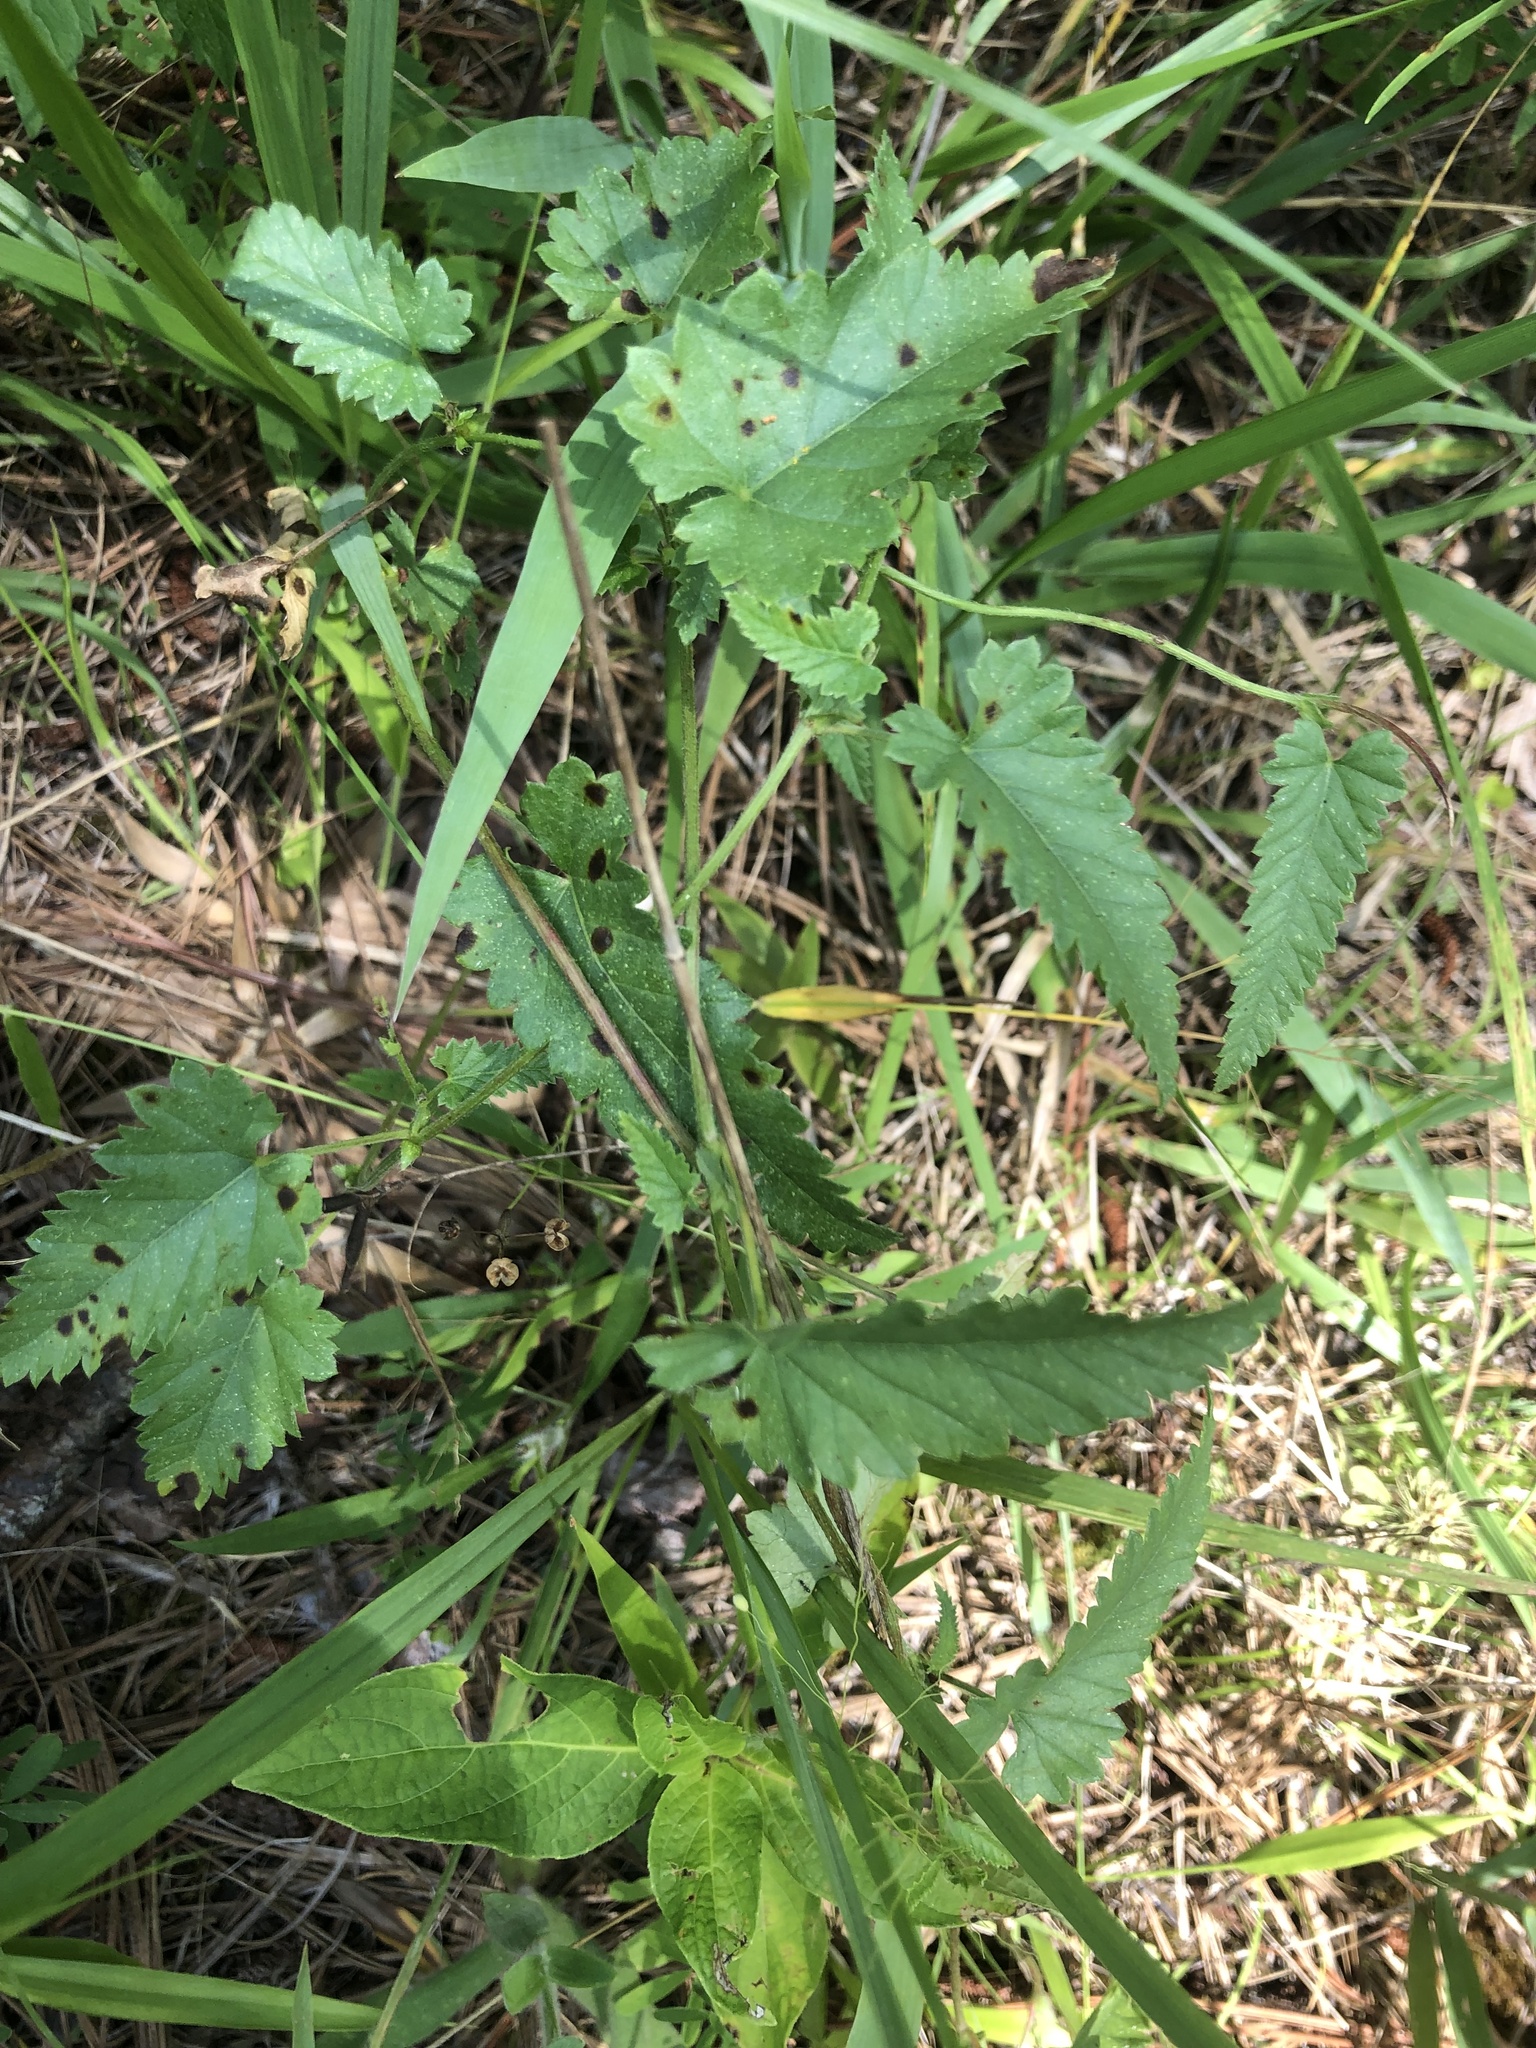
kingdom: Plantae
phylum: Tracheophyta
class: Magnoliopsida
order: Malpighiales
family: Euphorbiaceae
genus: Tragia
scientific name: Tragia urticifolia
